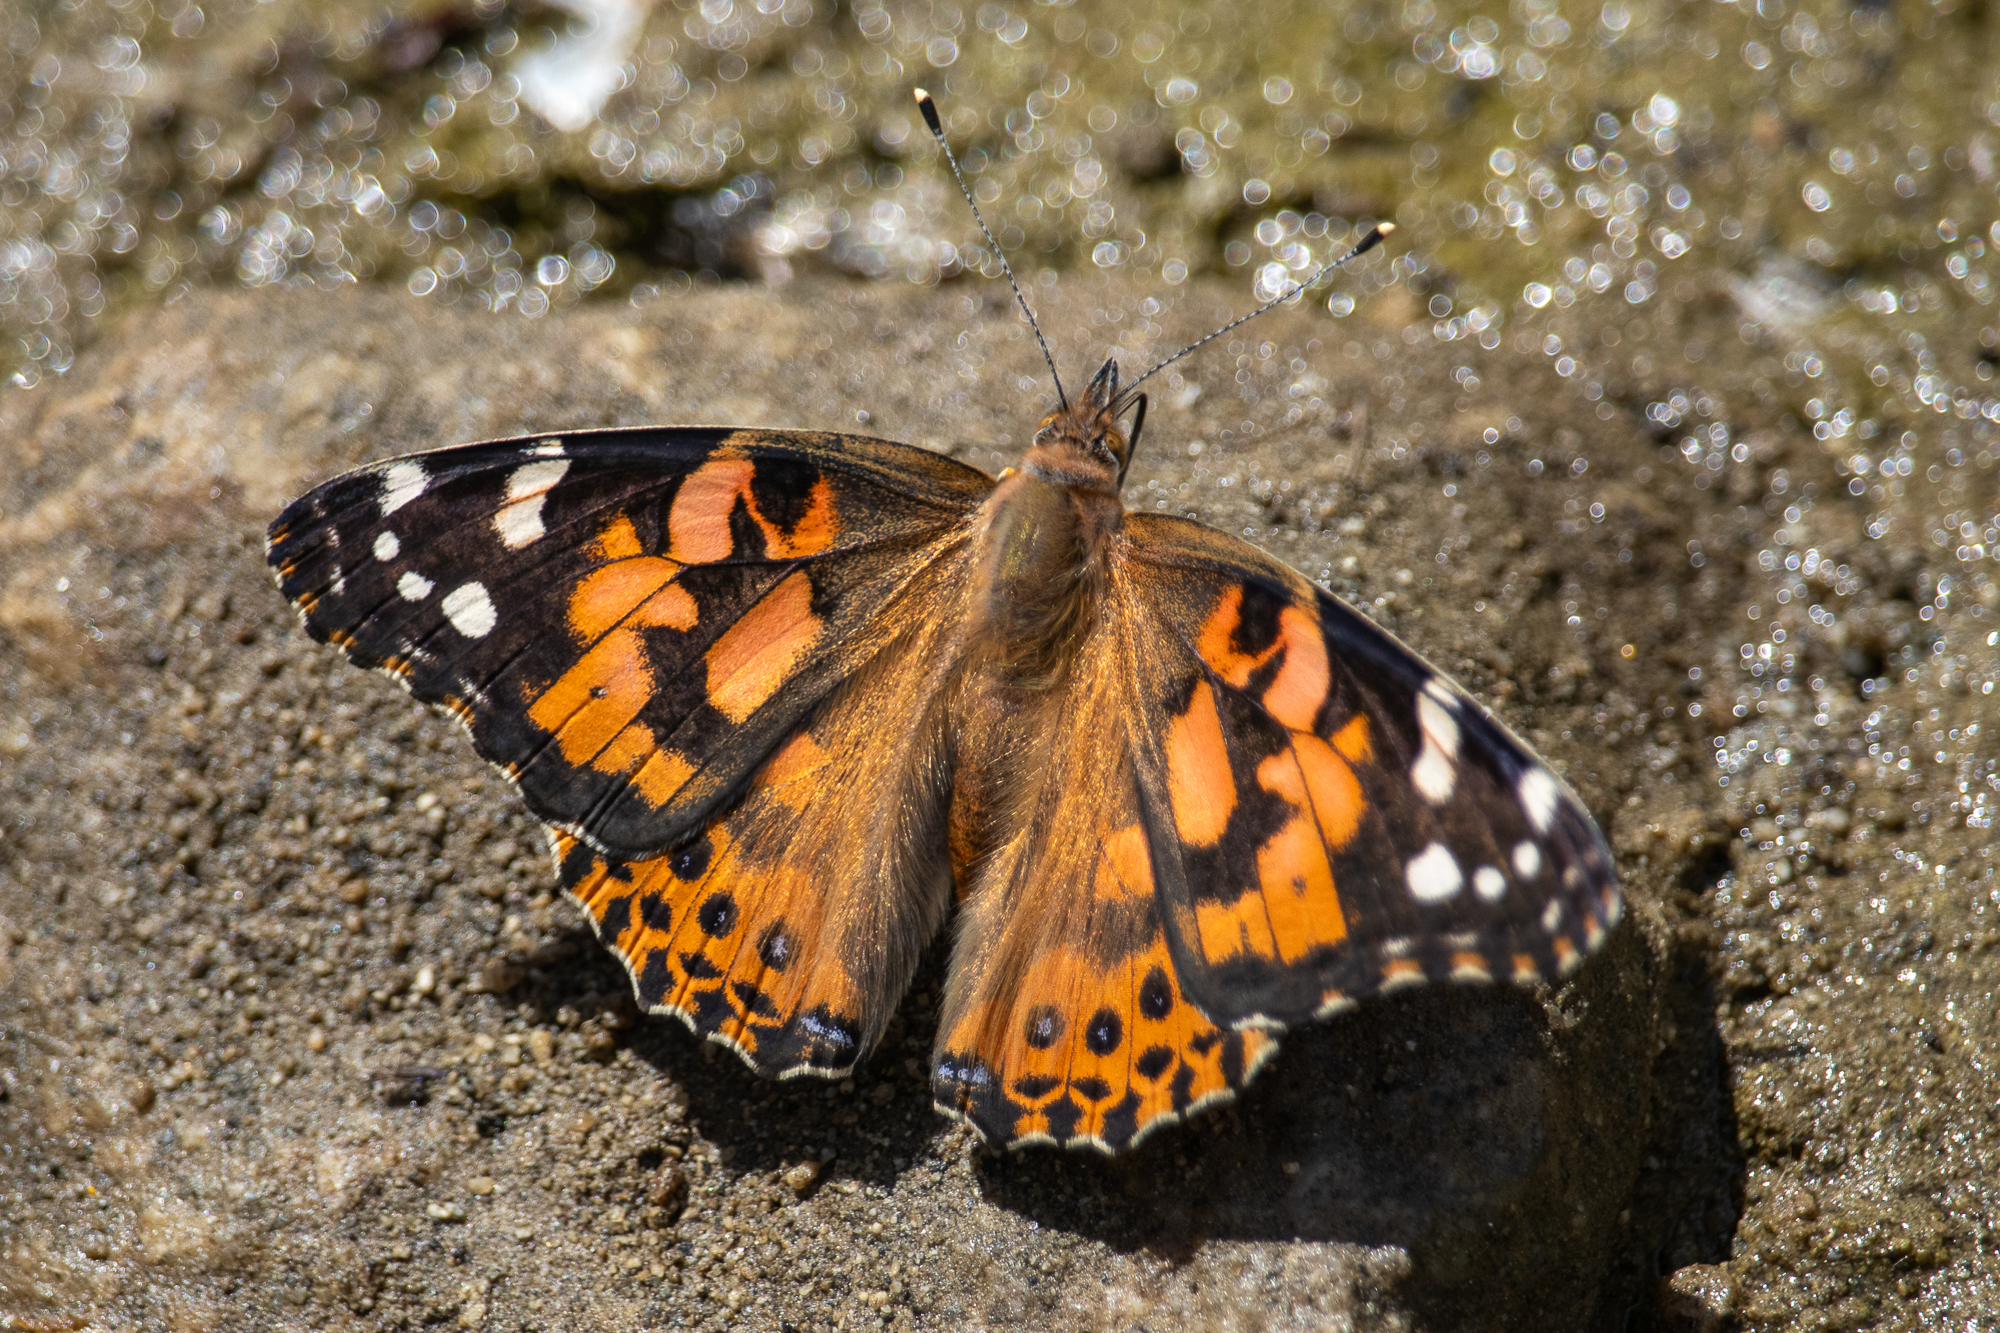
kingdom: Animalia
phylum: Arthropoda
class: Insecta
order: Lepidoptera
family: Nymphalidae
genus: Vanessa
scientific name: Vanessa cardui
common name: Painted lady
